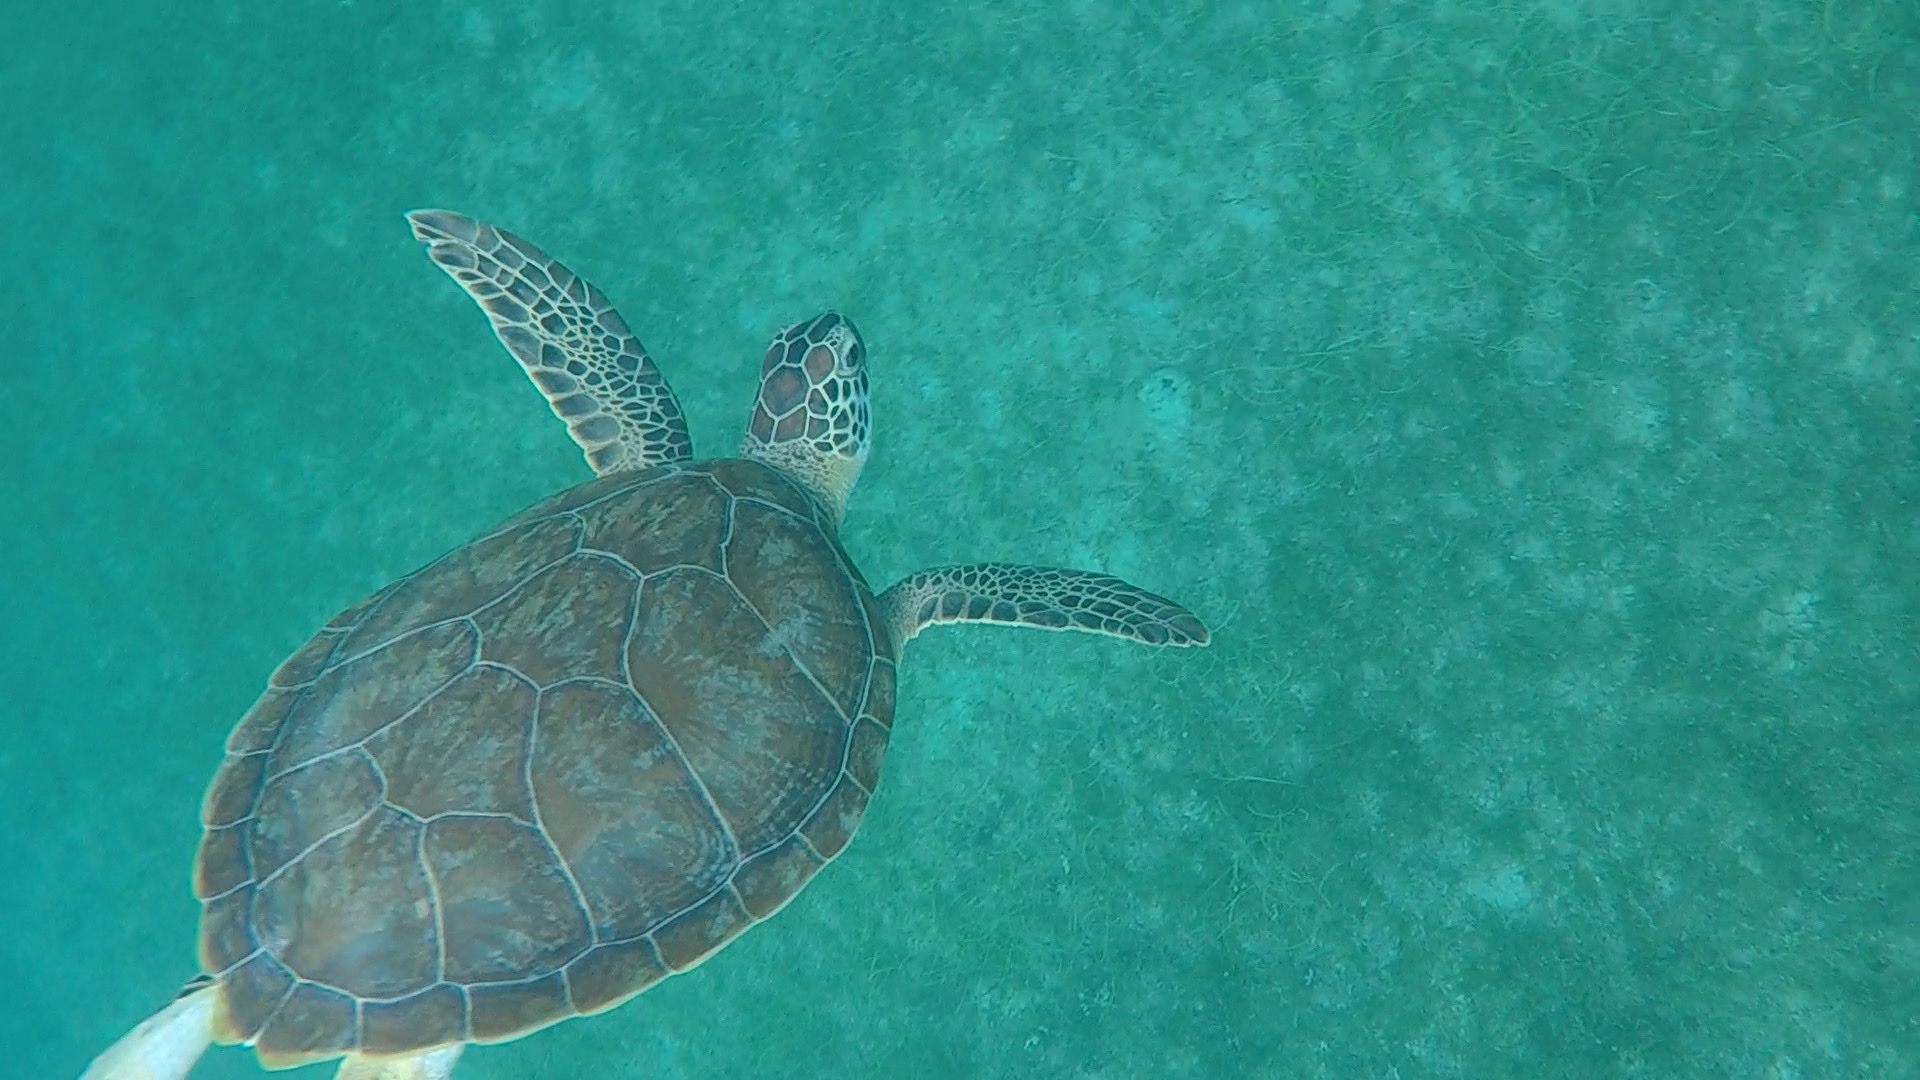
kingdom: Animalia
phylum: Chordata
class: Testudines
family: Cheloniidae
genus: Chelonia
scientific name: Chelonia mydas
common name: Green turtle
